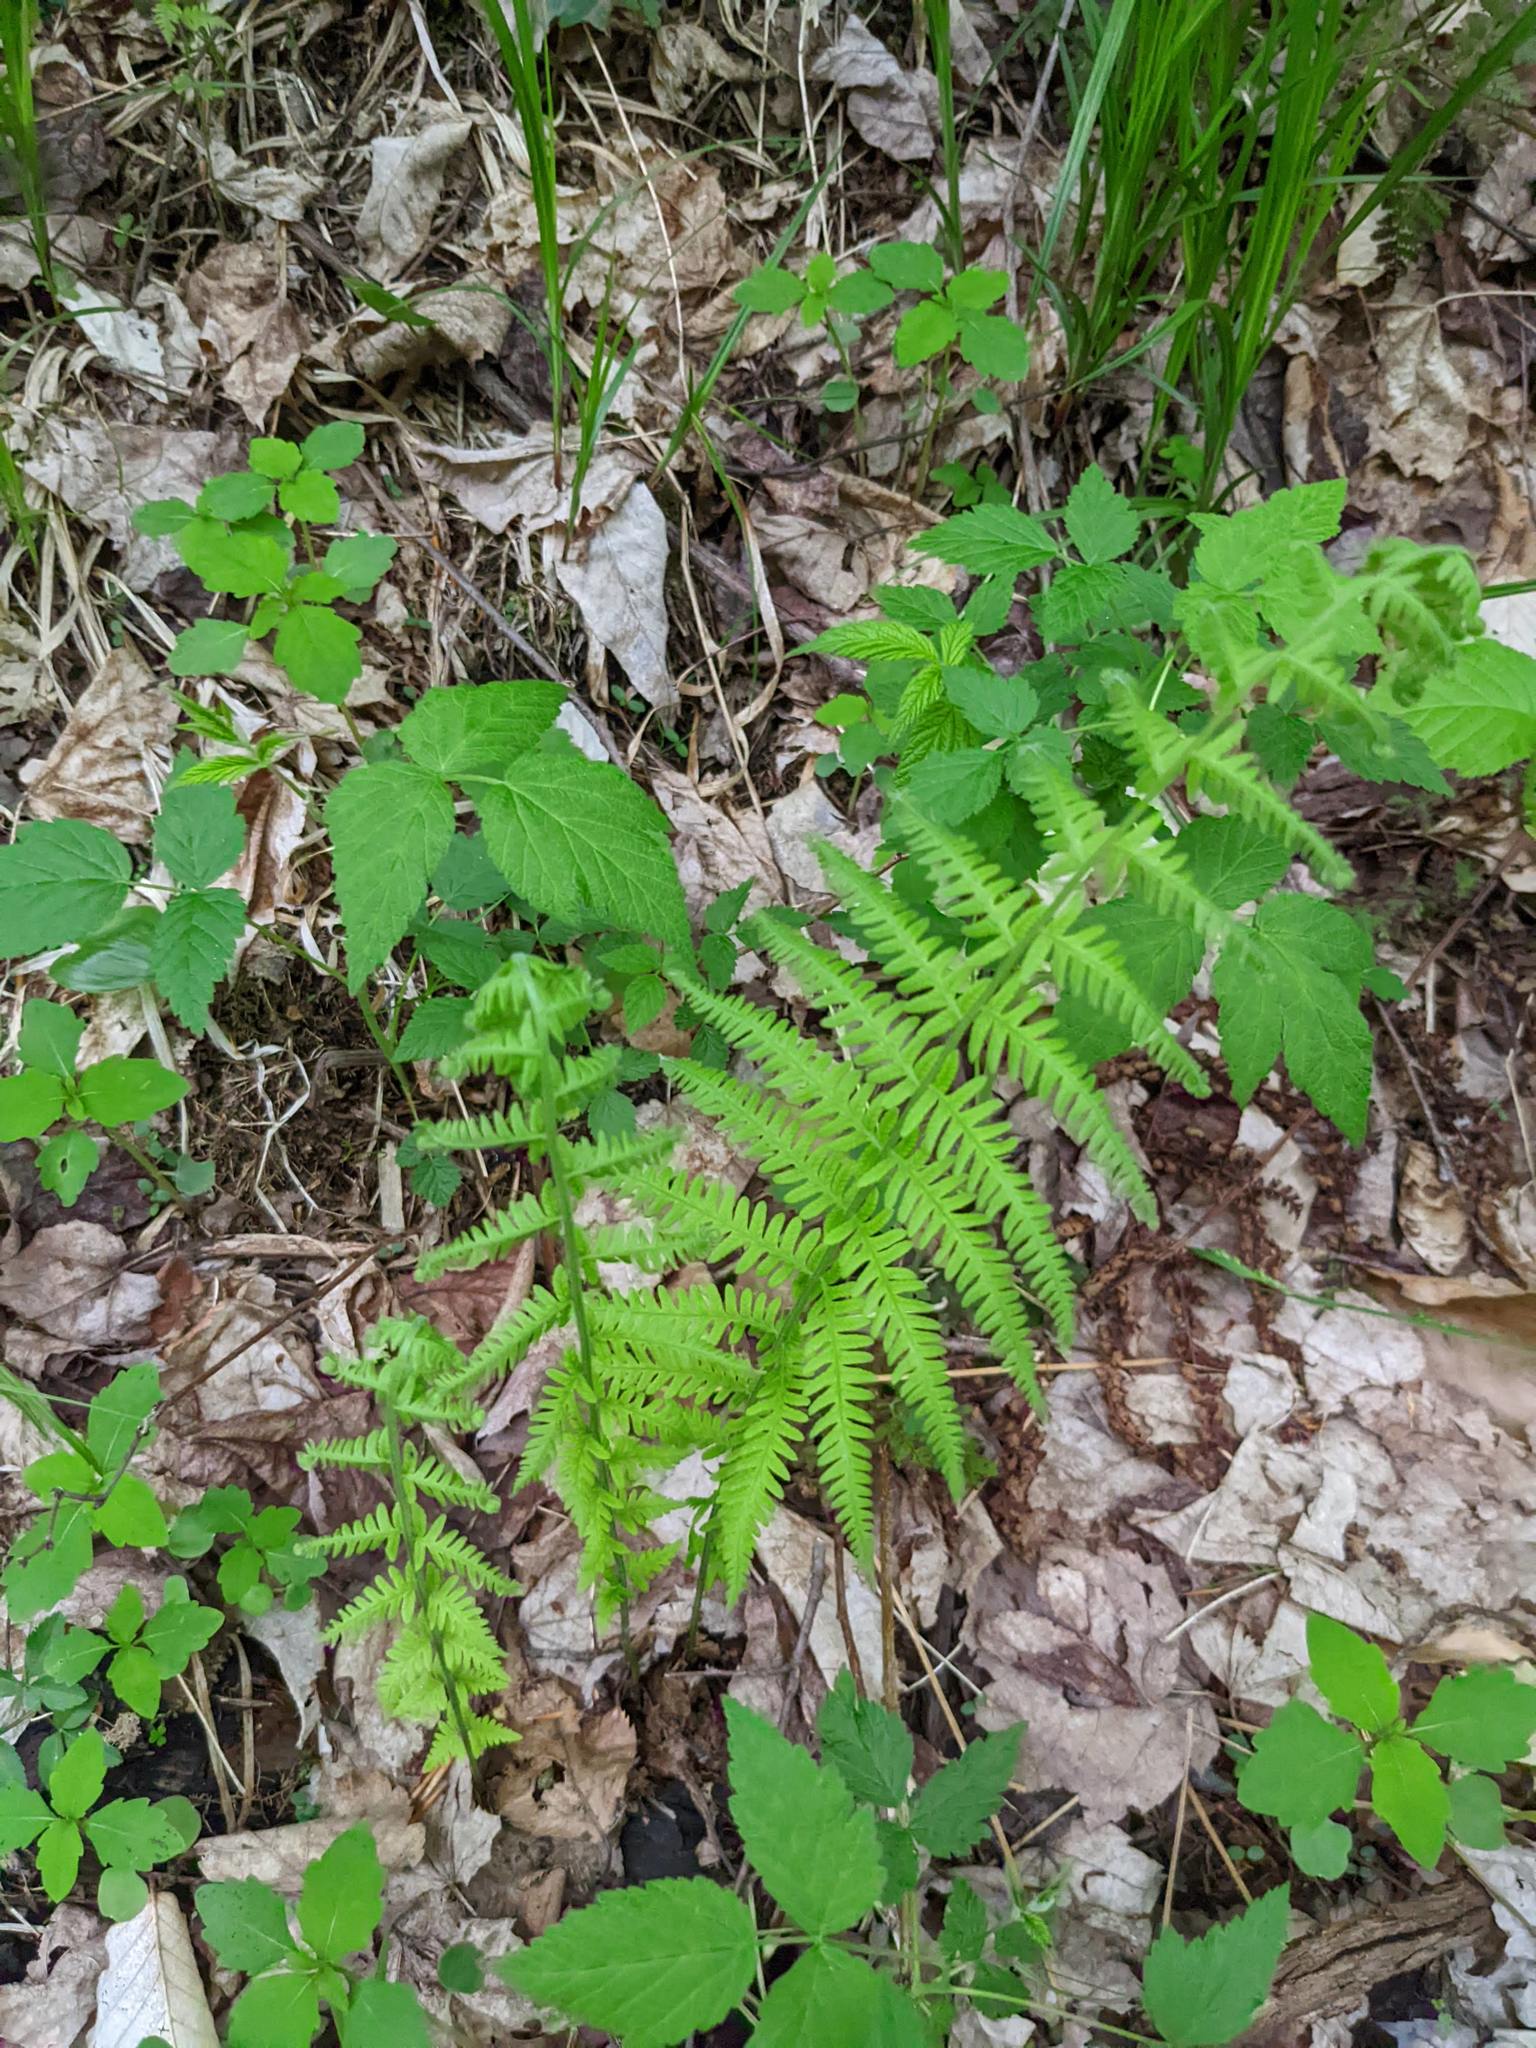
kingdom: Plantae
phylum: Tracheophyta
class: Polypodiopsida
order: Polypodiales
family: Thelypteridaceae
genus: Amauropelta
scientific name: Amauropelta noveboracensis
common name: New york fern
